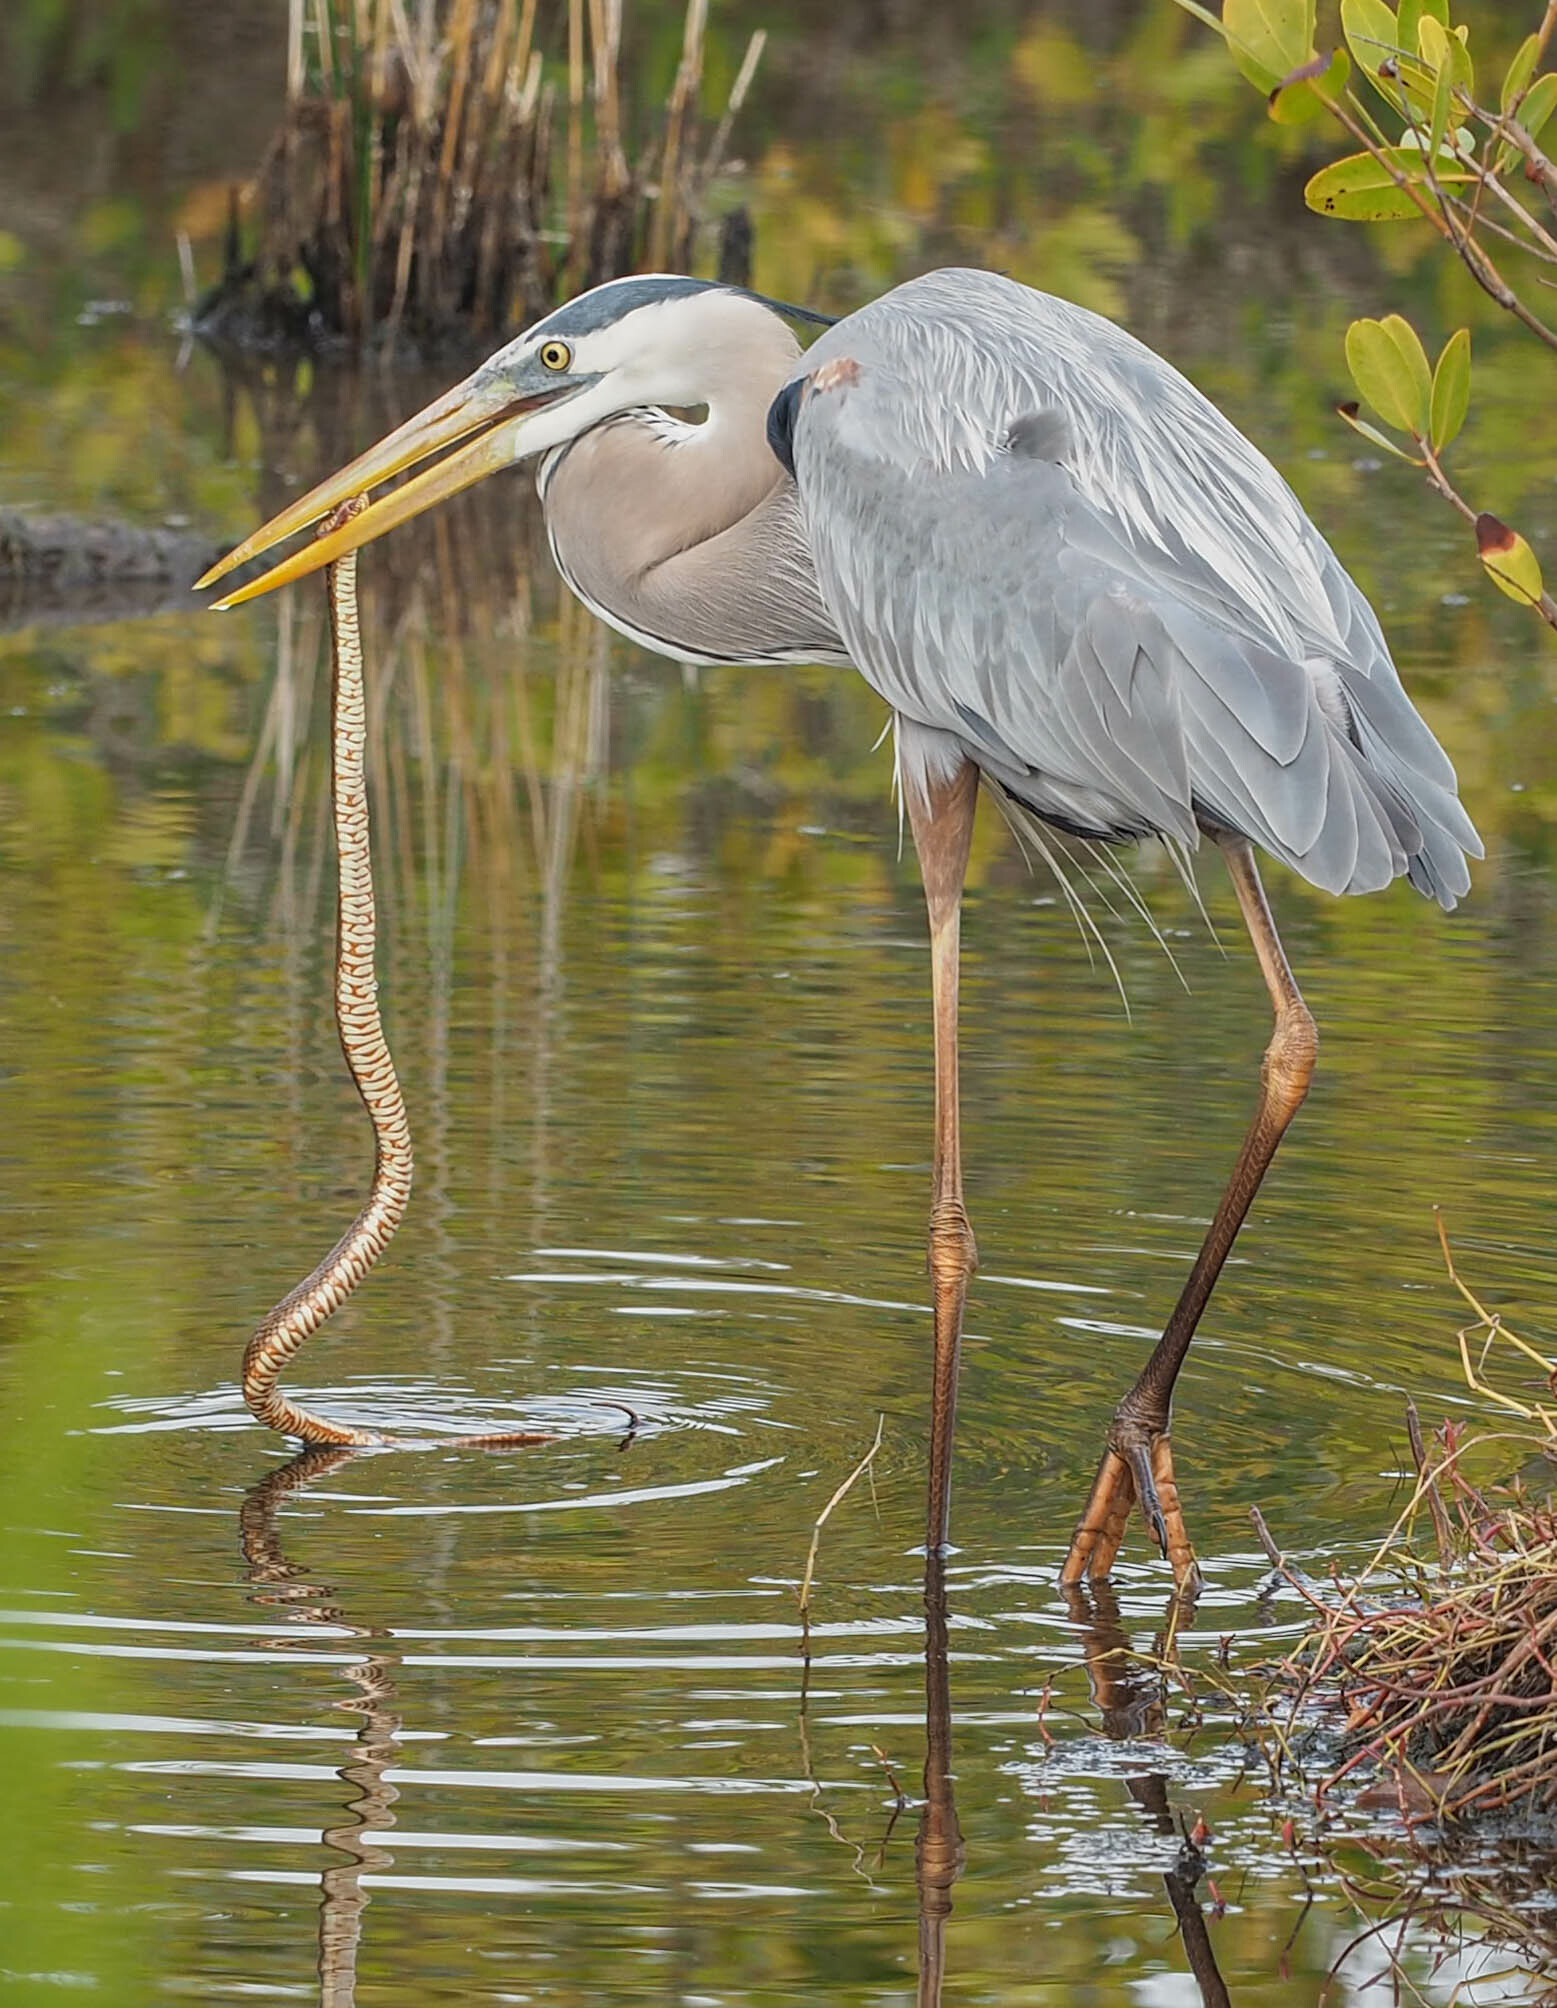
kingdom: Animalia
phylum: Chordata
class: Aves
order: Pelecaniformes
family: Ardeidae
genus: Ardea
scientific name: Ardea herodias
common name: Great blue heron
